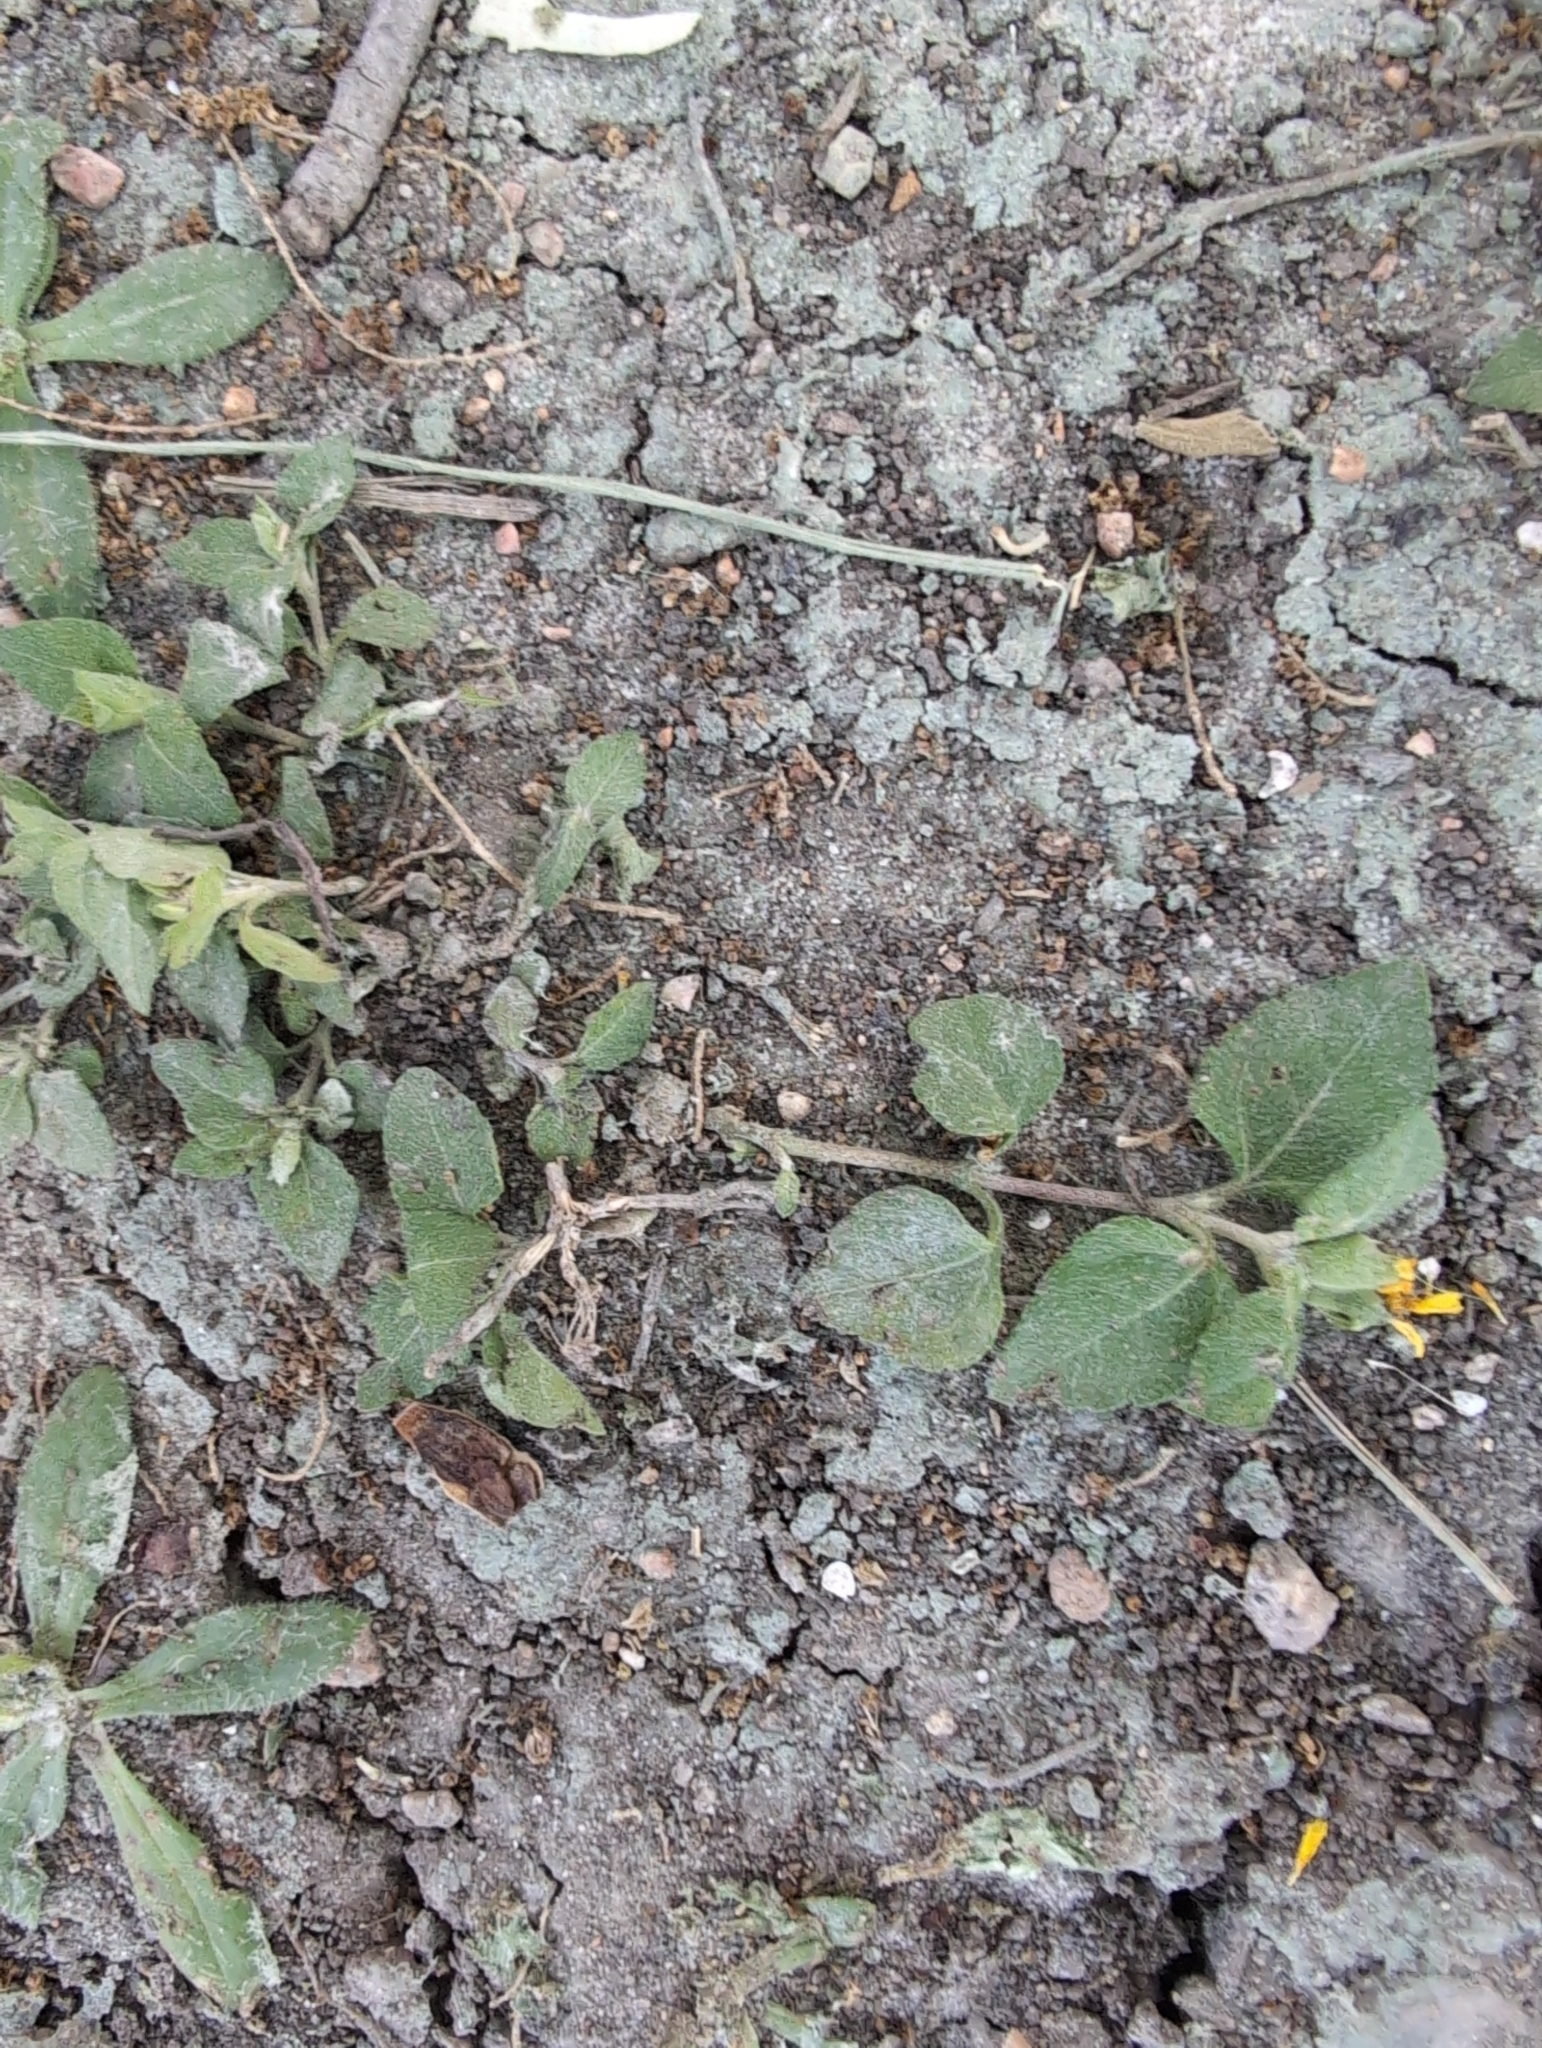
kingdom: Plantae
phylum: Tracheophyta
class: Magnoliopsida
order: Asterales
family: Asteraceae
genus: Calyptocarpus
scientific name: Calyptocarpus vialis
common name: Straggler daisy
